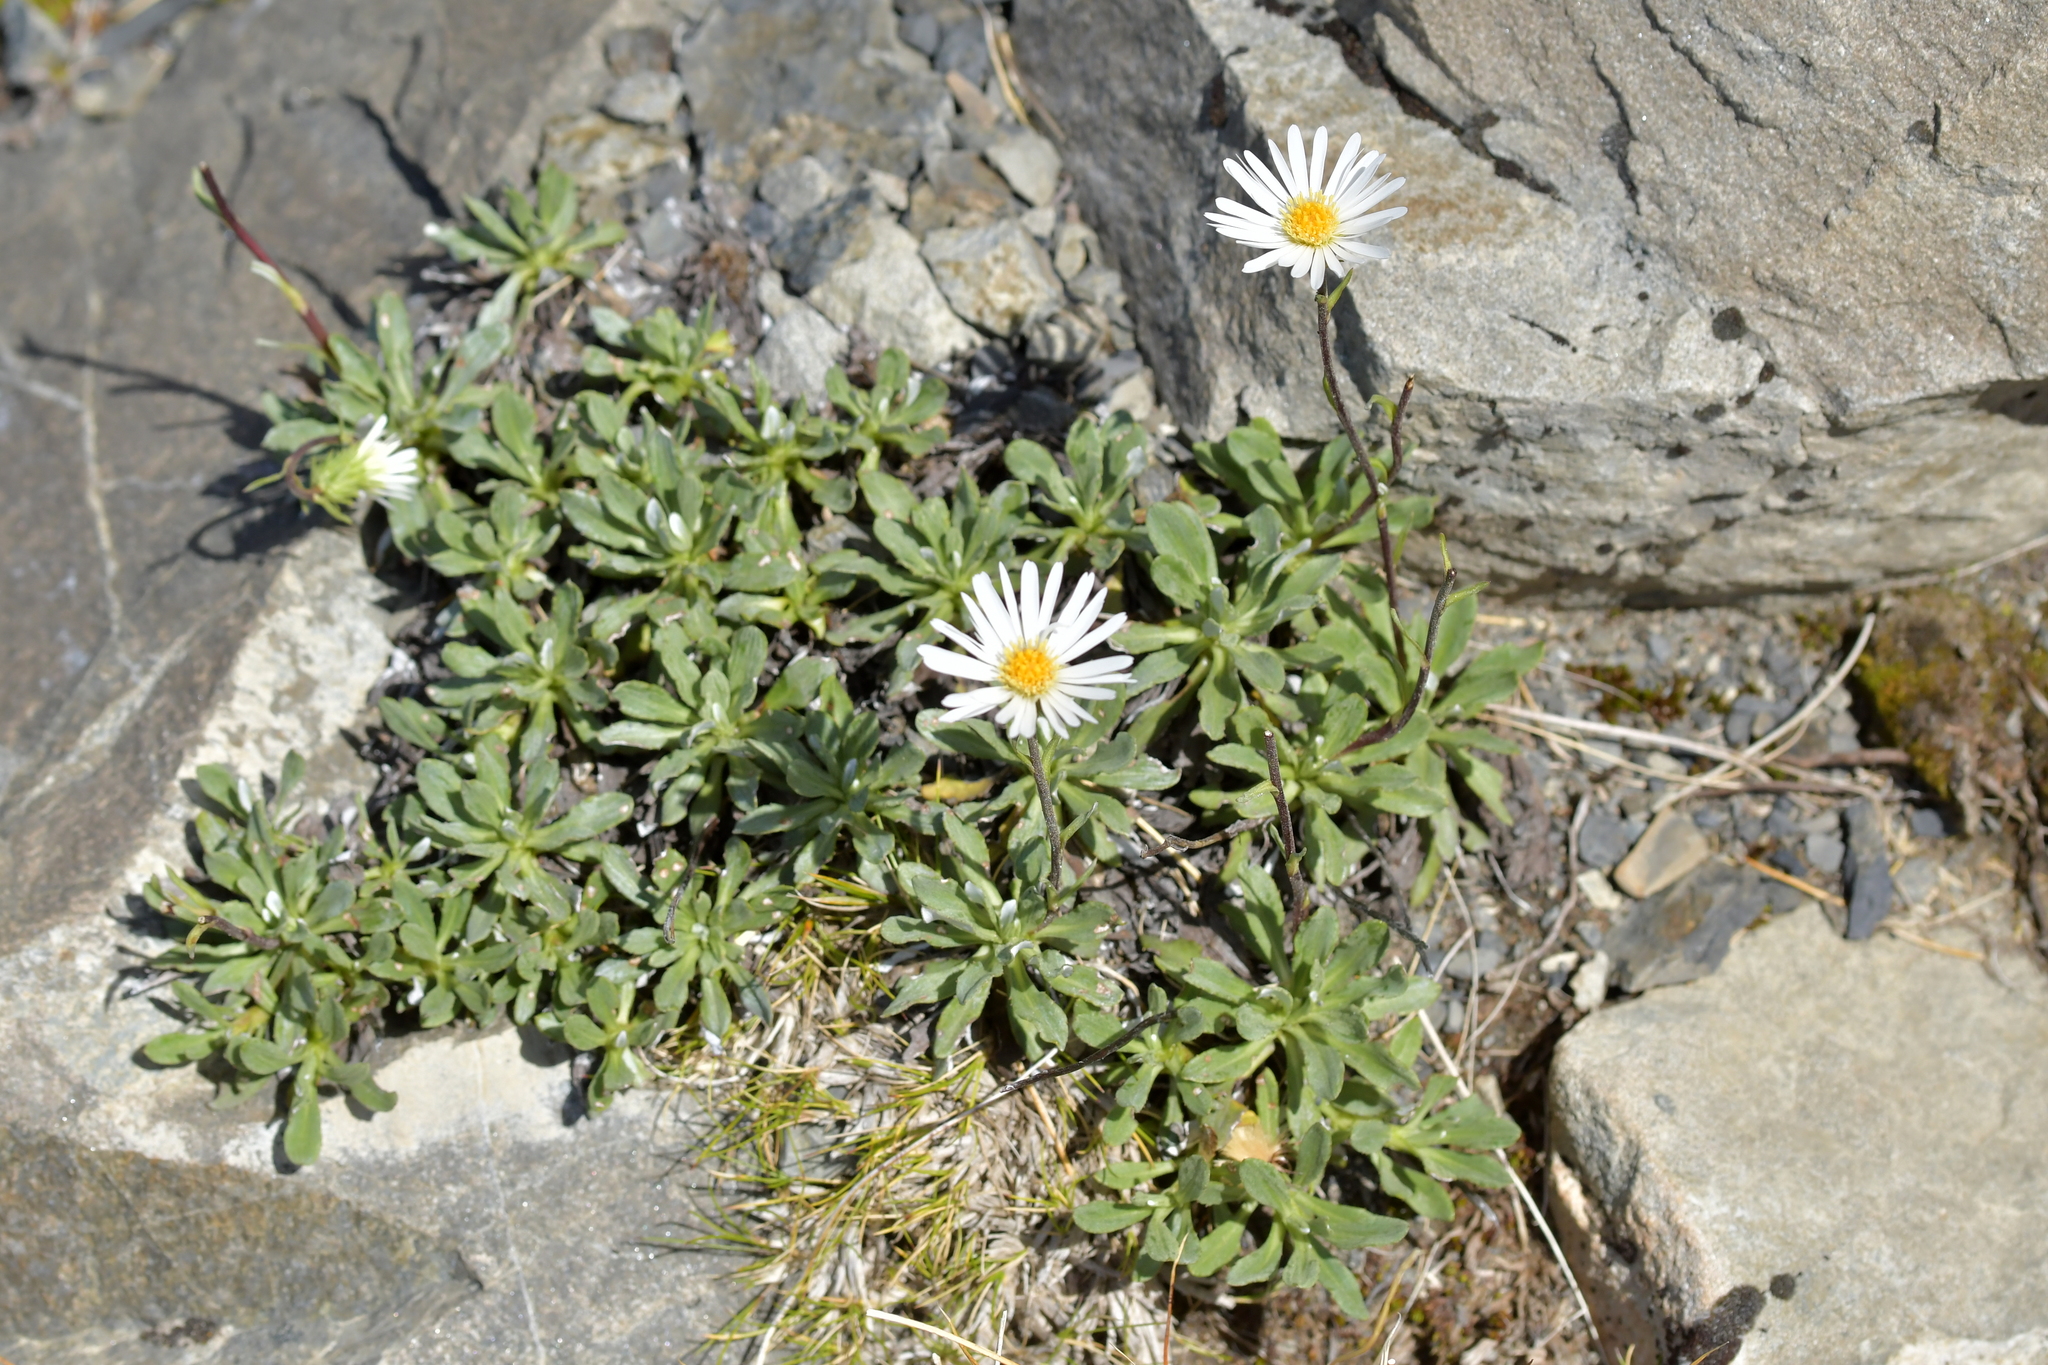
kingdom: Plantae
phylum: Tracheophyta
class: Magnoliopsida
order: Asterales
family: Asteraceae
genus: Celmisia
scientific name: Celmisia durietzii
